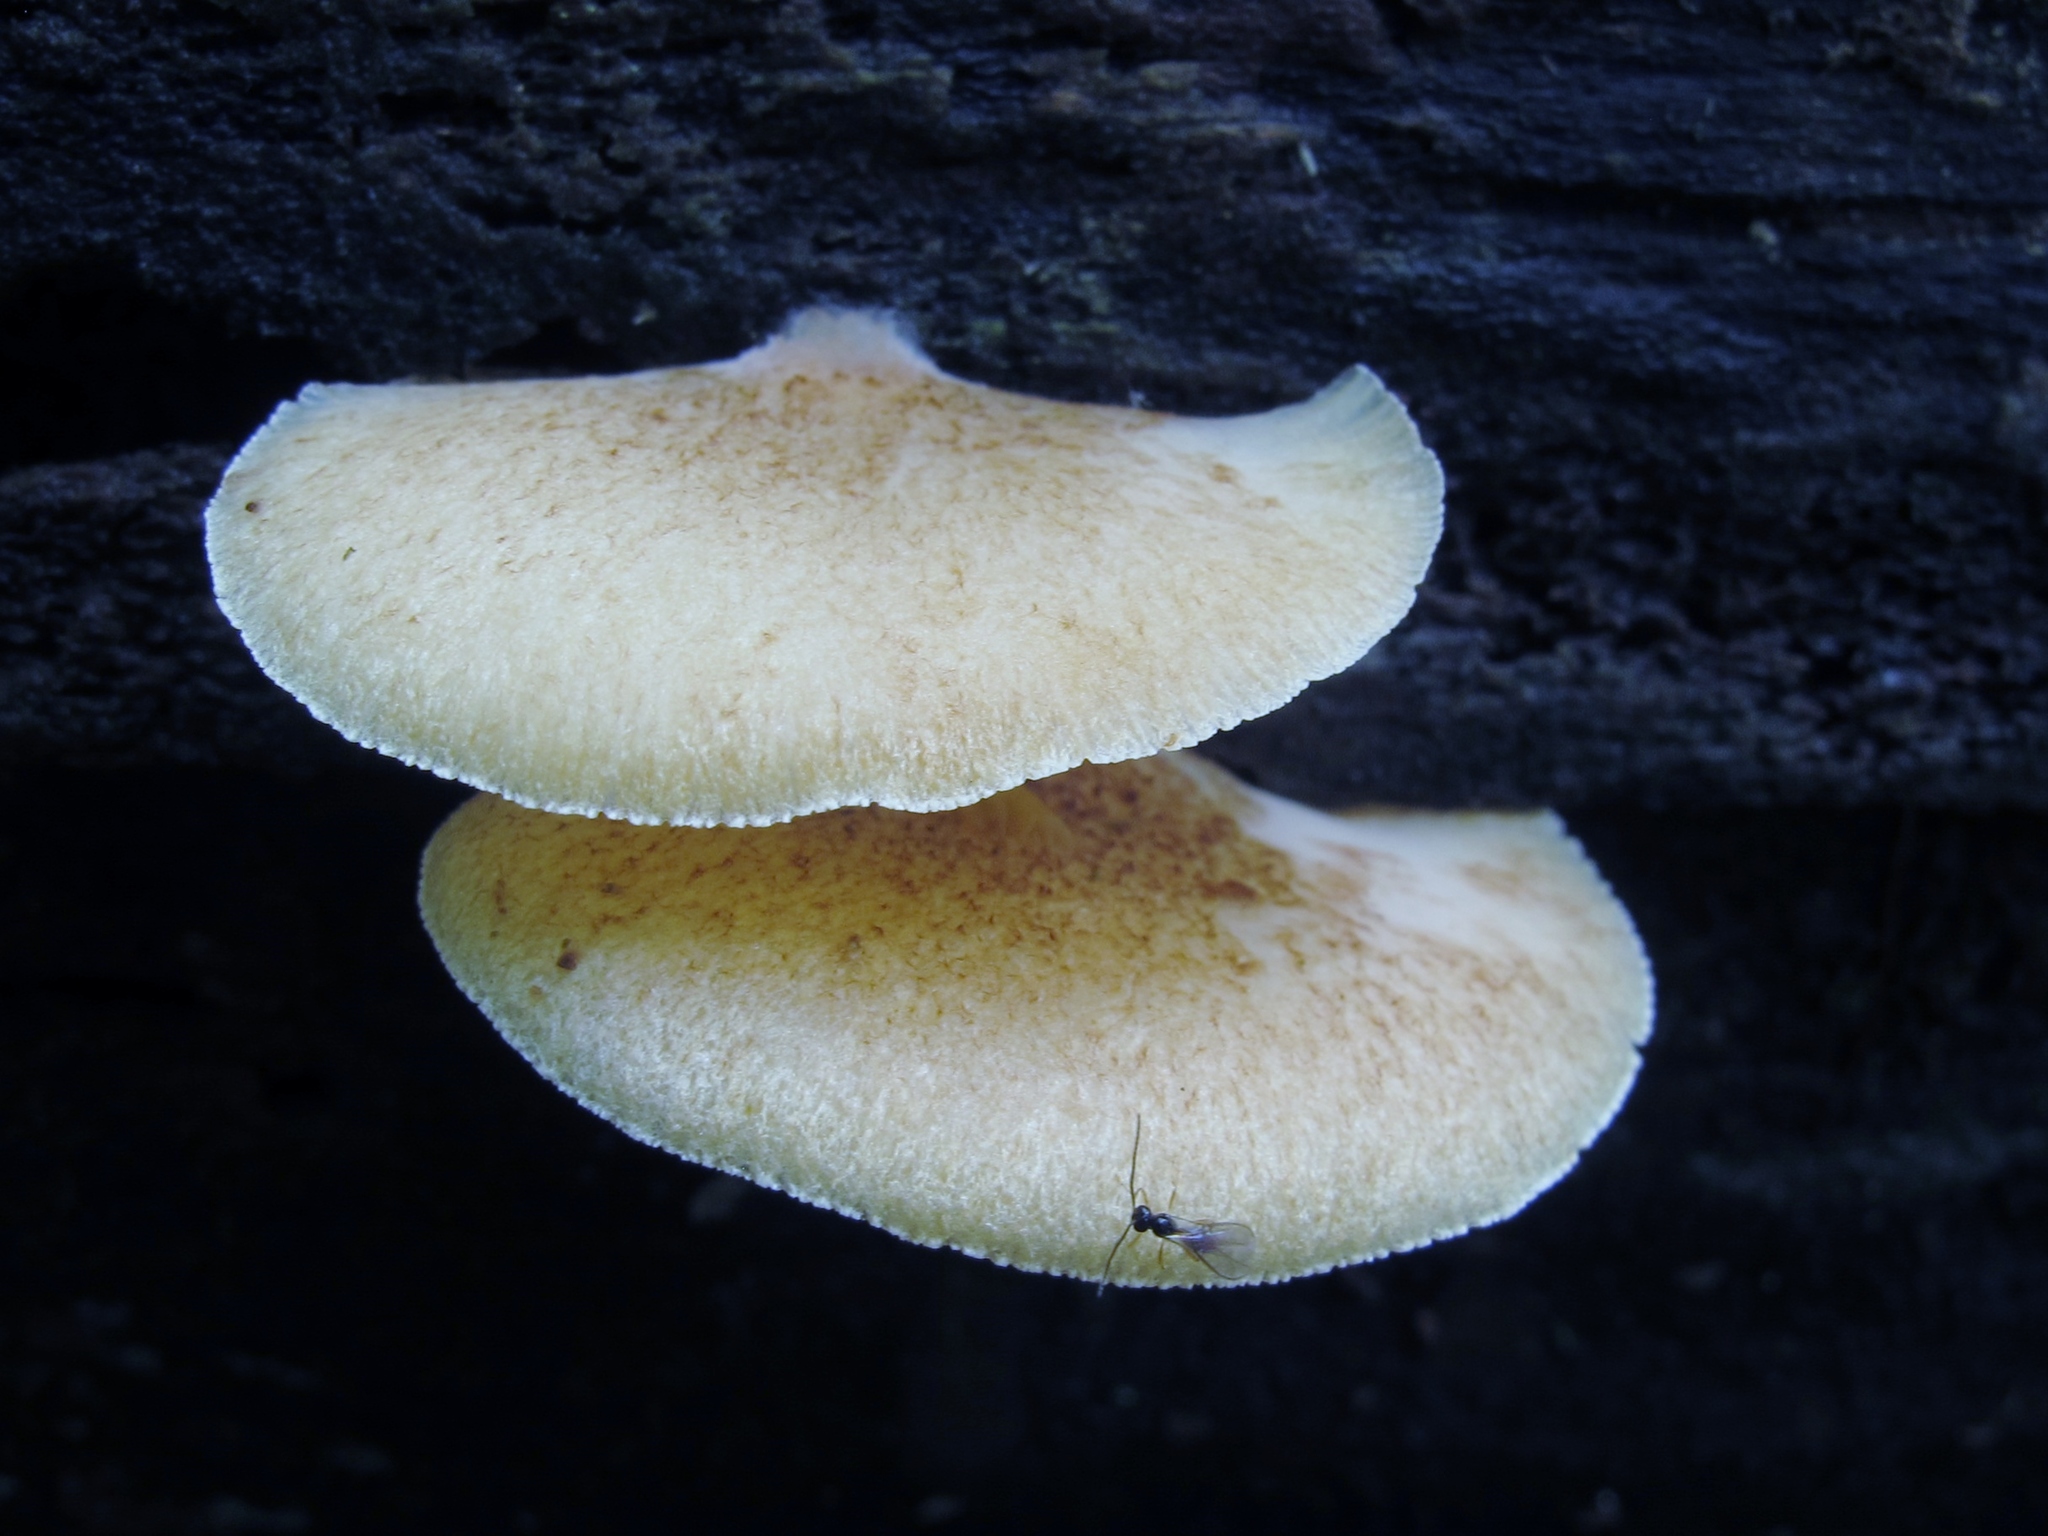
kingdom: Fungi
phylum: Basidiomycota
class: Agaricomycetes
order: Agaricales
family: Crepidotaceae
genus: Crepidotus
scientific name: Crepidotus mollis
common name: Peeling oysterling
